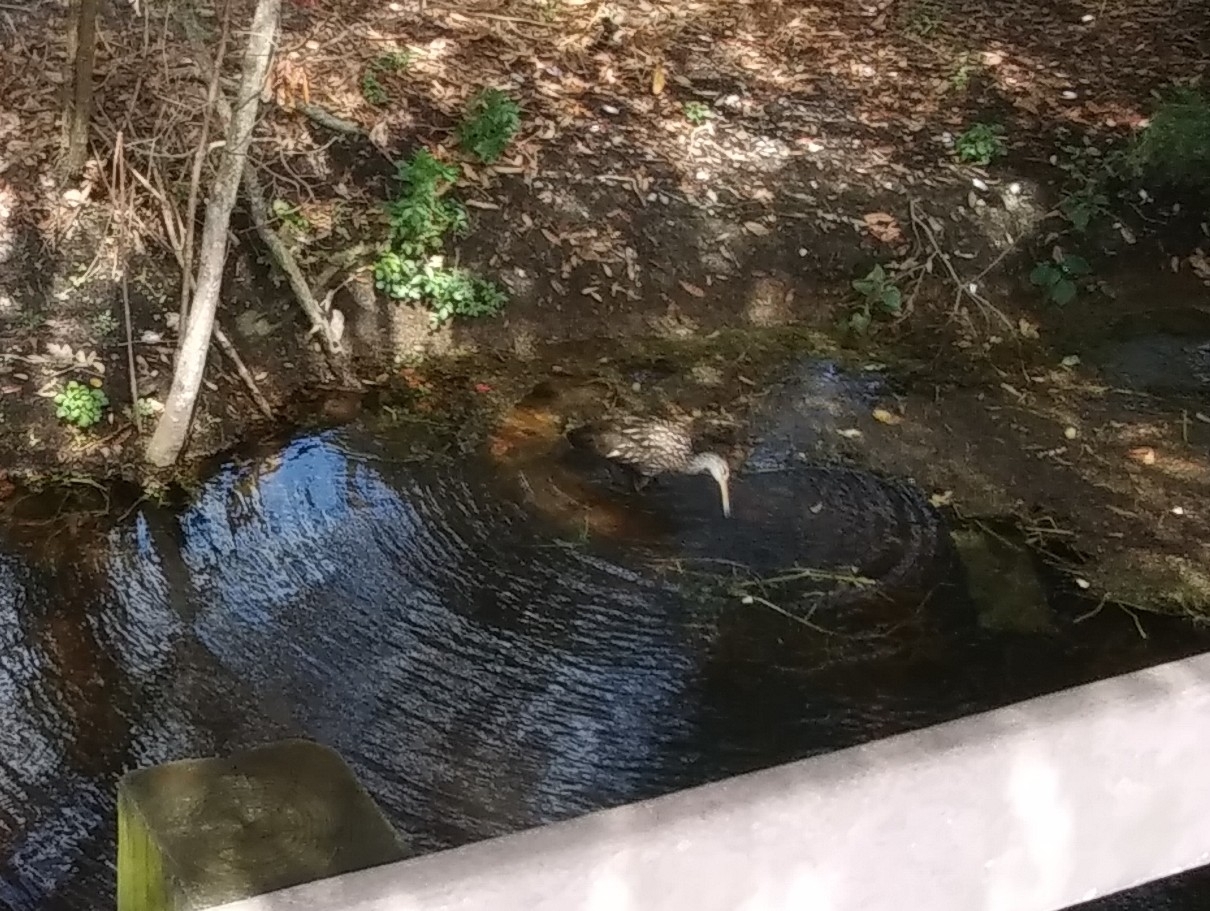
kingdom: Animalia
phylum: Chordata
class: Aves
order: Gruiformes
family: Aramidae
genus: Aramus
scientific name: Aramus guarauna
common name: Limpkin
